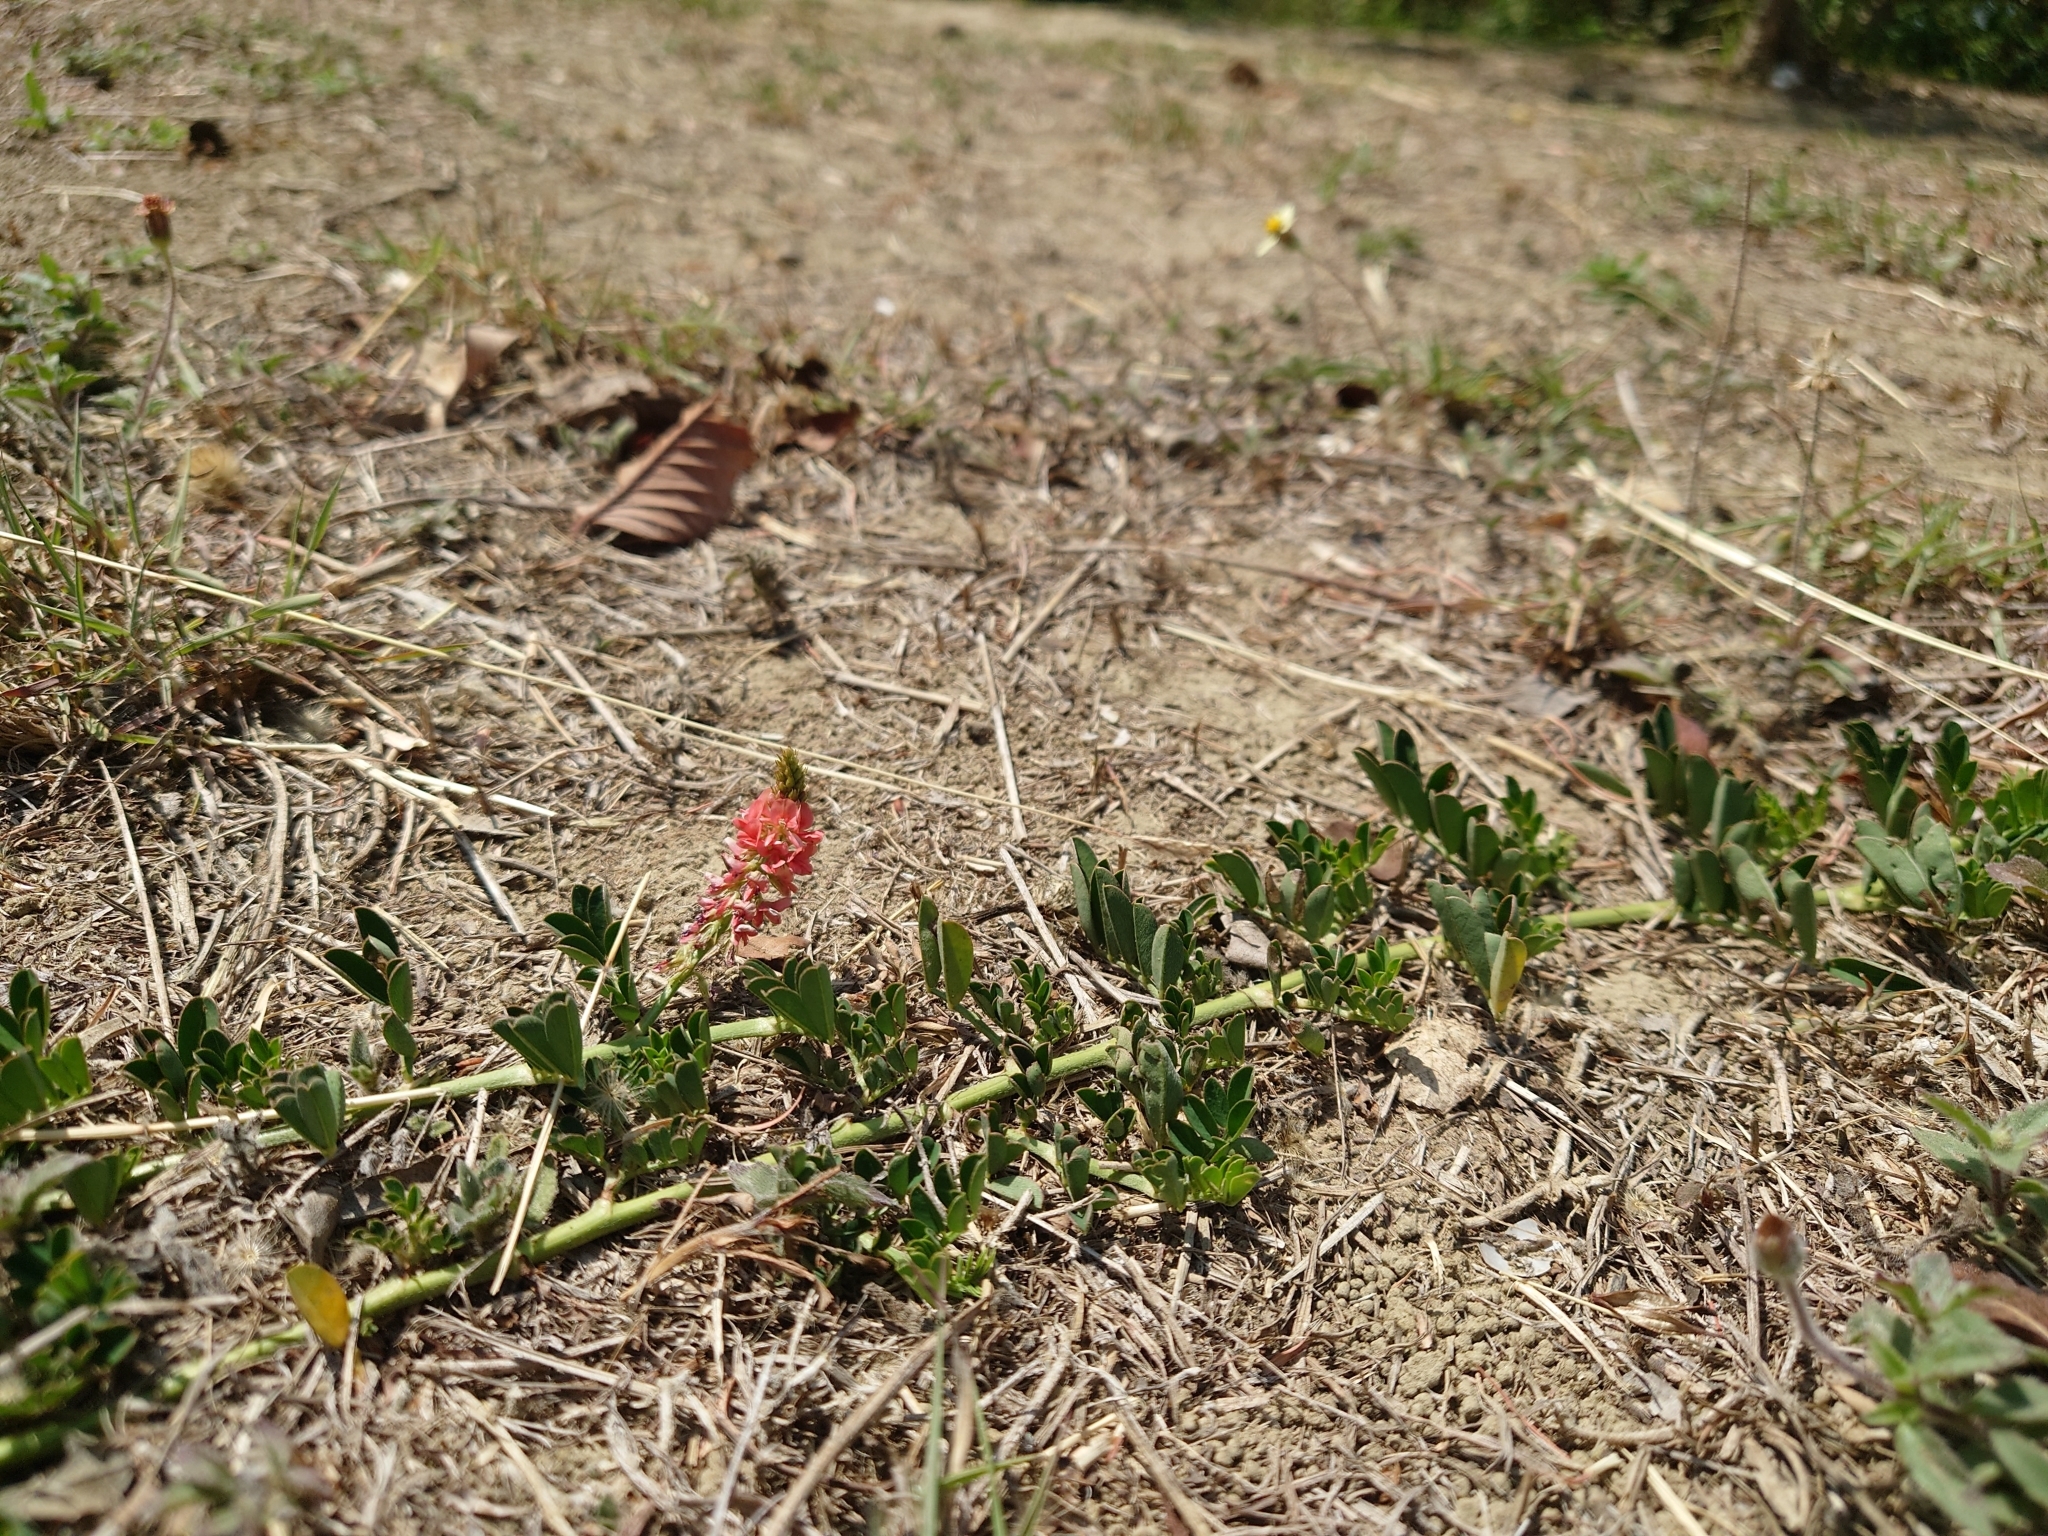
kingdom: Plantae
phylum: Tracheophyta
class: Magnoliopsida
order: Fabales
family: Fabaceae
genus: Indigofera
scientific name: Indigofera hendecaphylla
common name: Trailing indigo
